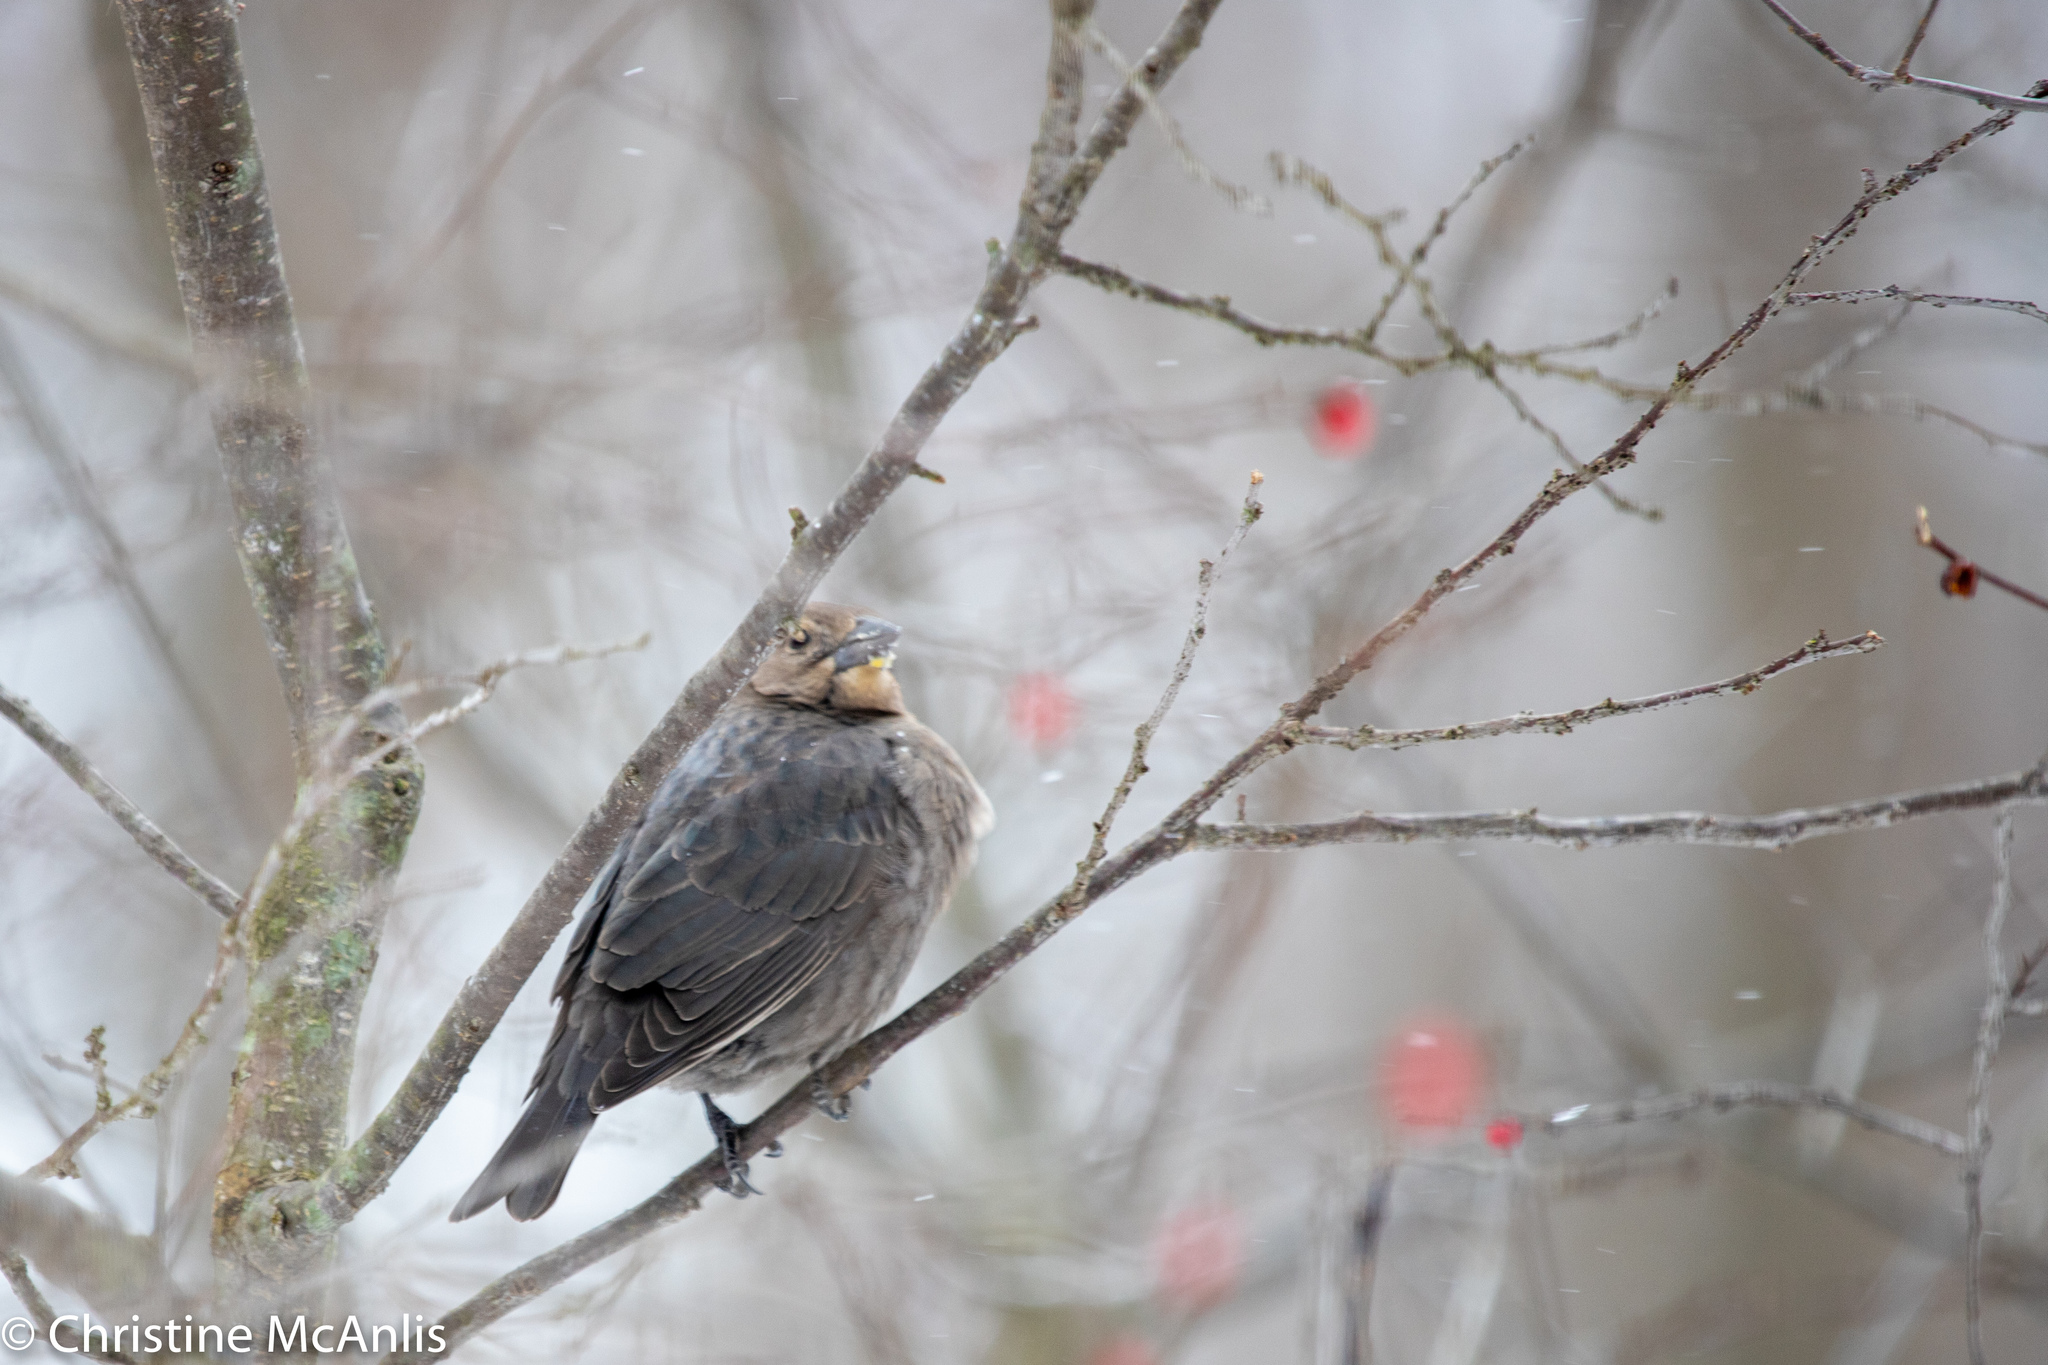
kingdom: Animalia
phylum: Chordata
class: Aves
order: Passeriformes
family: Icteridae
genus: Molothrus
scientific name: Molothrus ater
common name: Brown-headed cowbird
